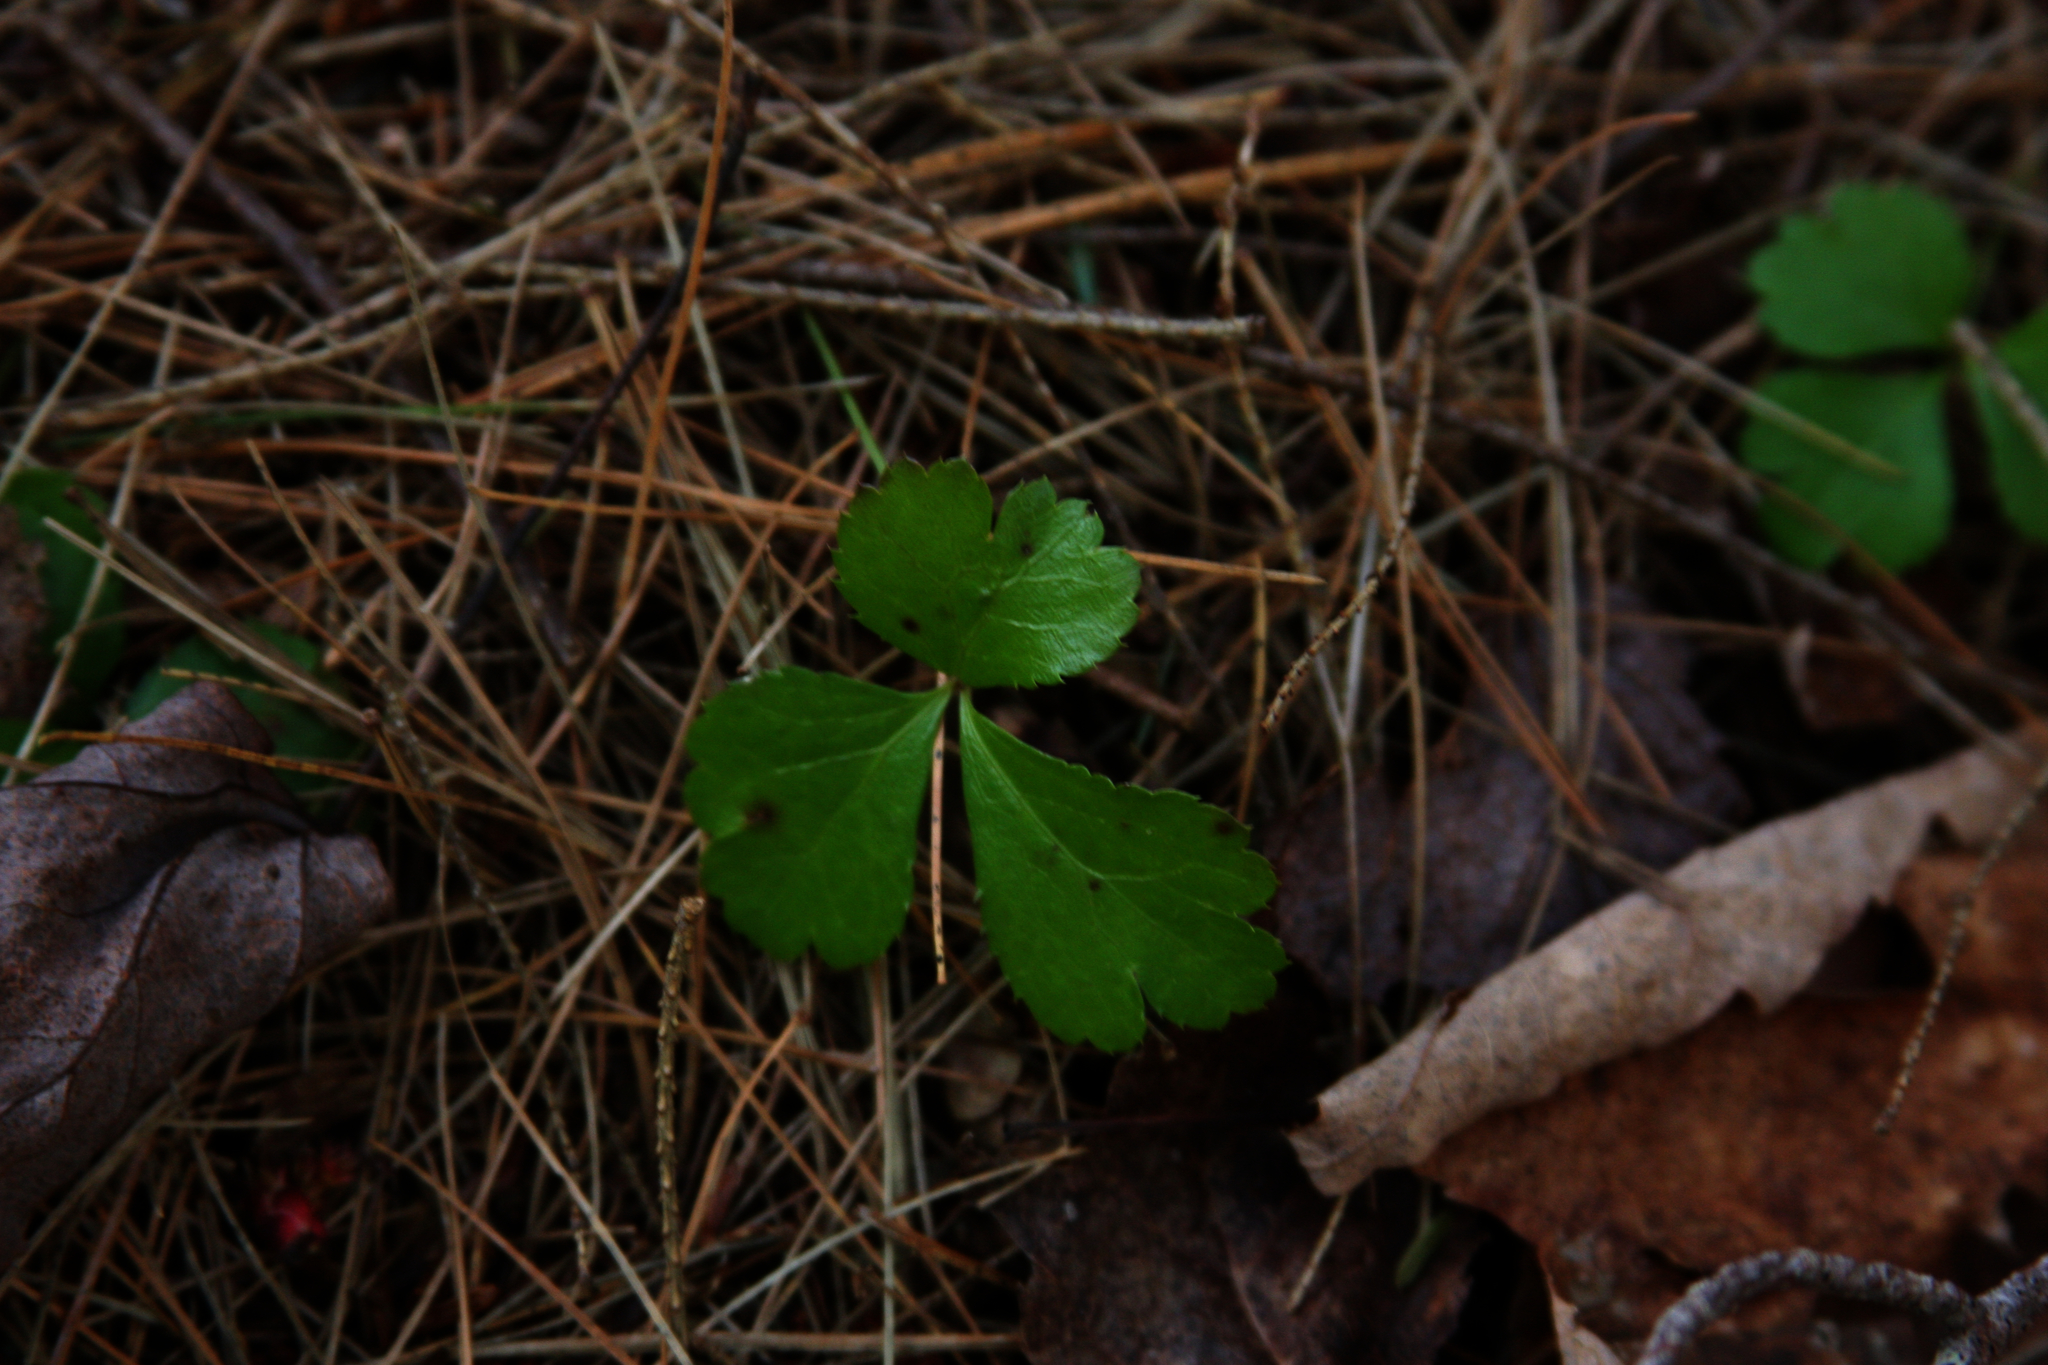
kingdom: Plantae
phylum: Tracheophyta
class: Magnoliopsida
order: Ranunculales
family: Ranunculaceae
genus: Coptis
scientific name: Coptis trifolia
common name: Canker-root
